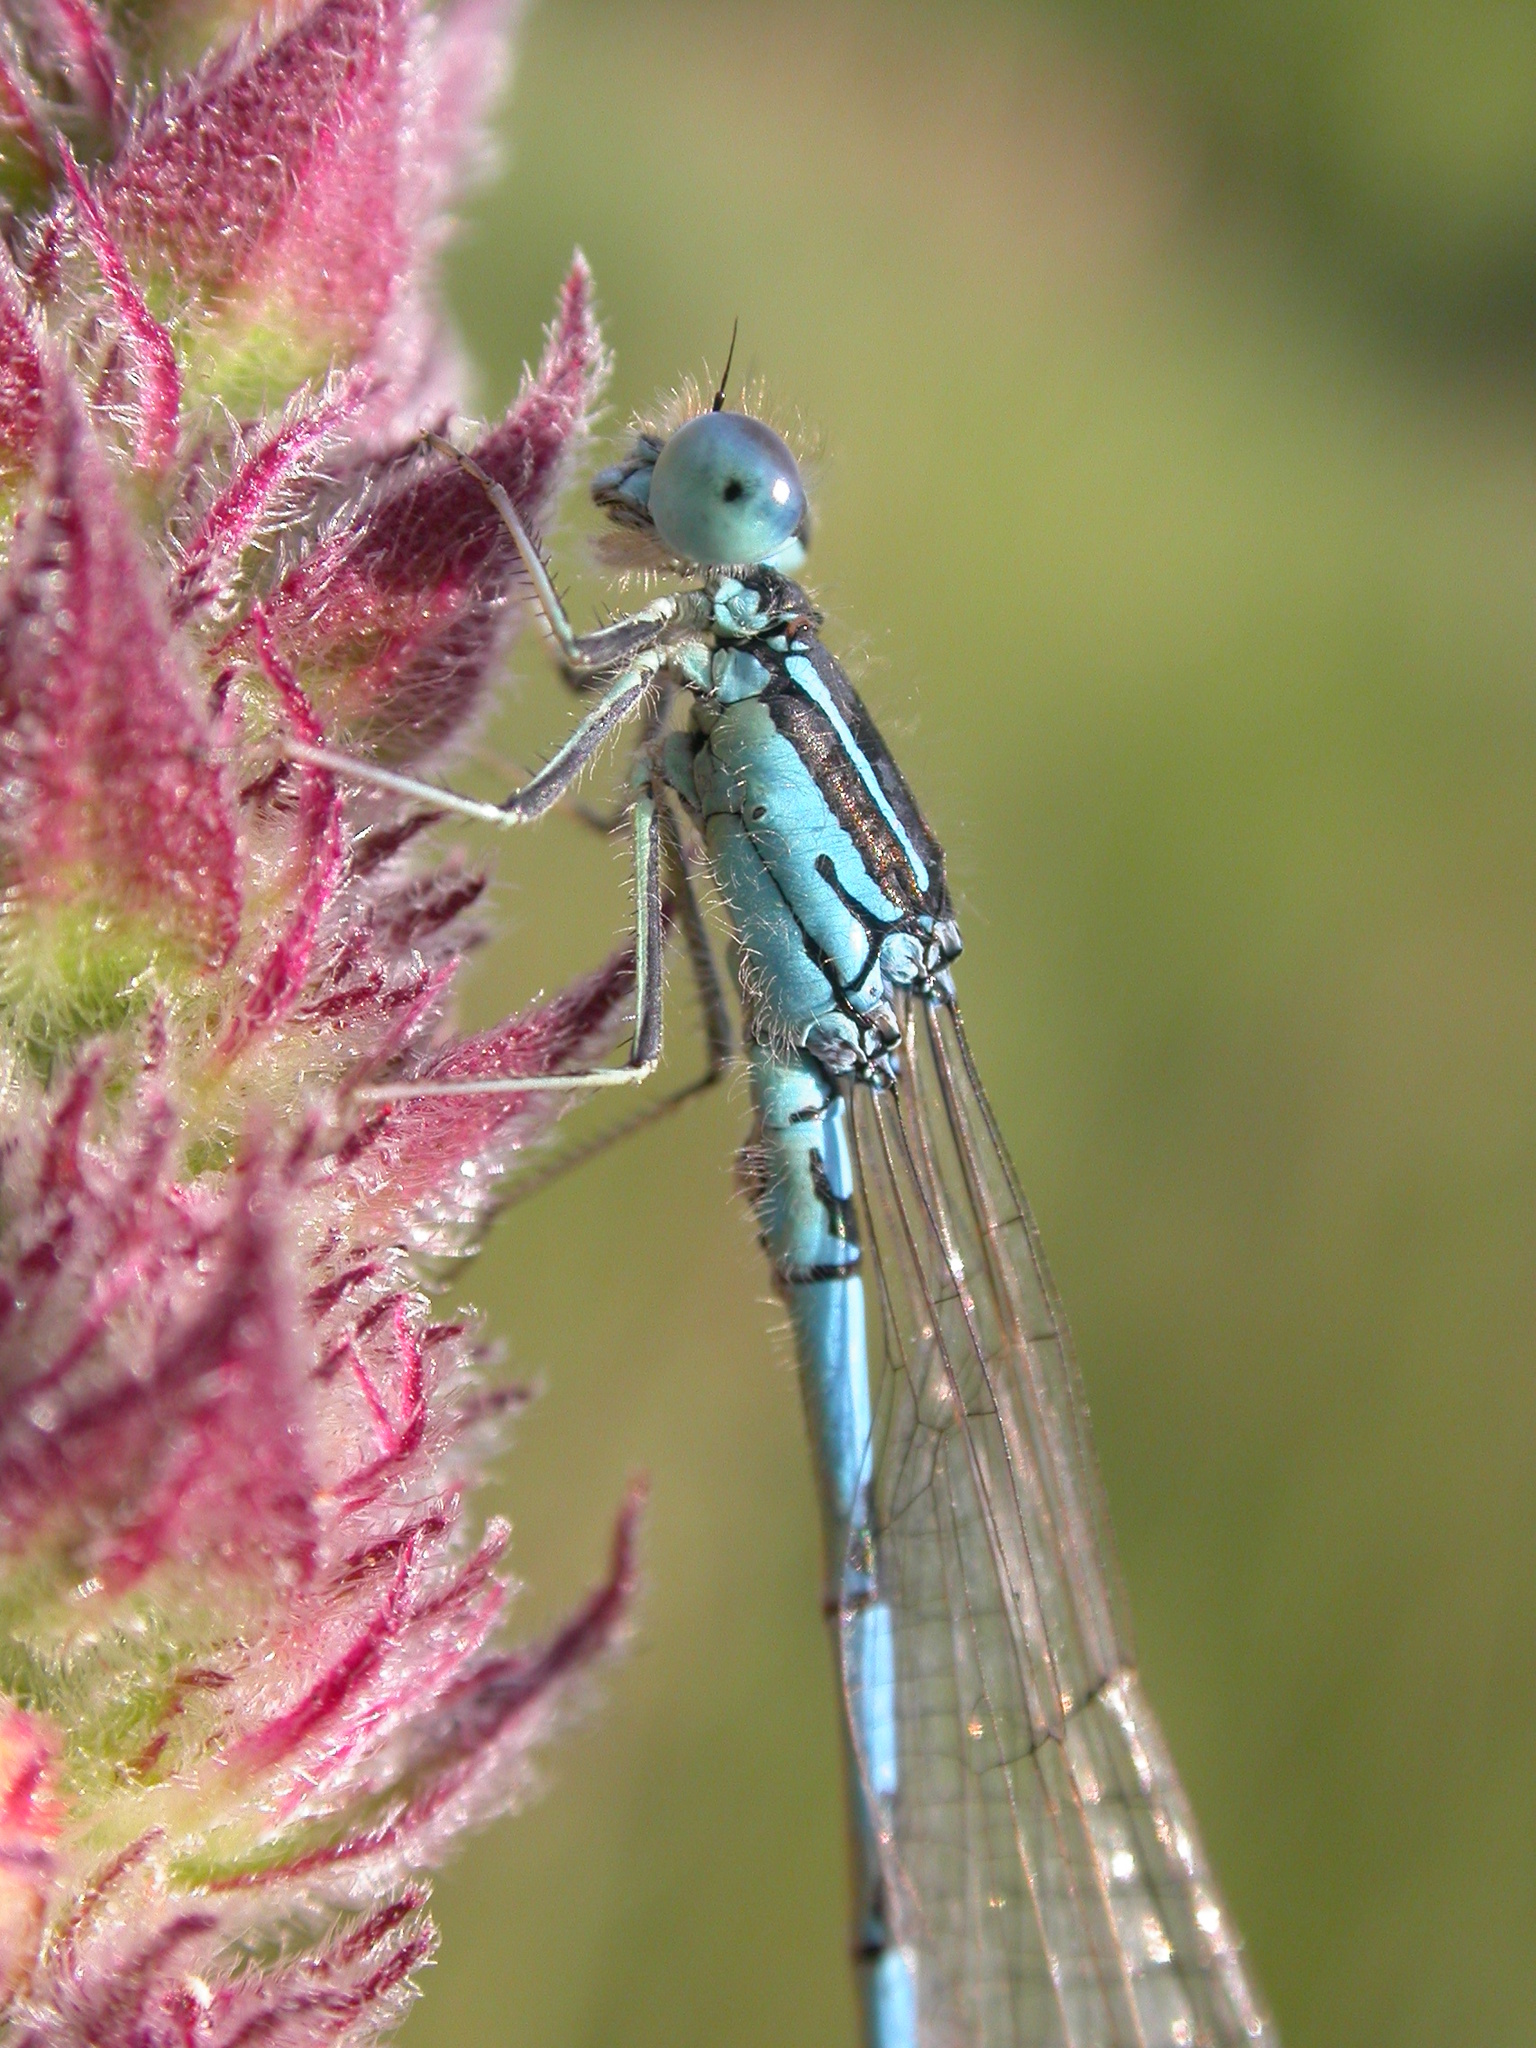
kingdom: Animalia
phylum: Arthropoda
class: Insecta
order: Odonata
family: Coenagrionidae
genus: Coenagrion
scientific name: Coenagrion scitulum
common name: Dainty bluet
